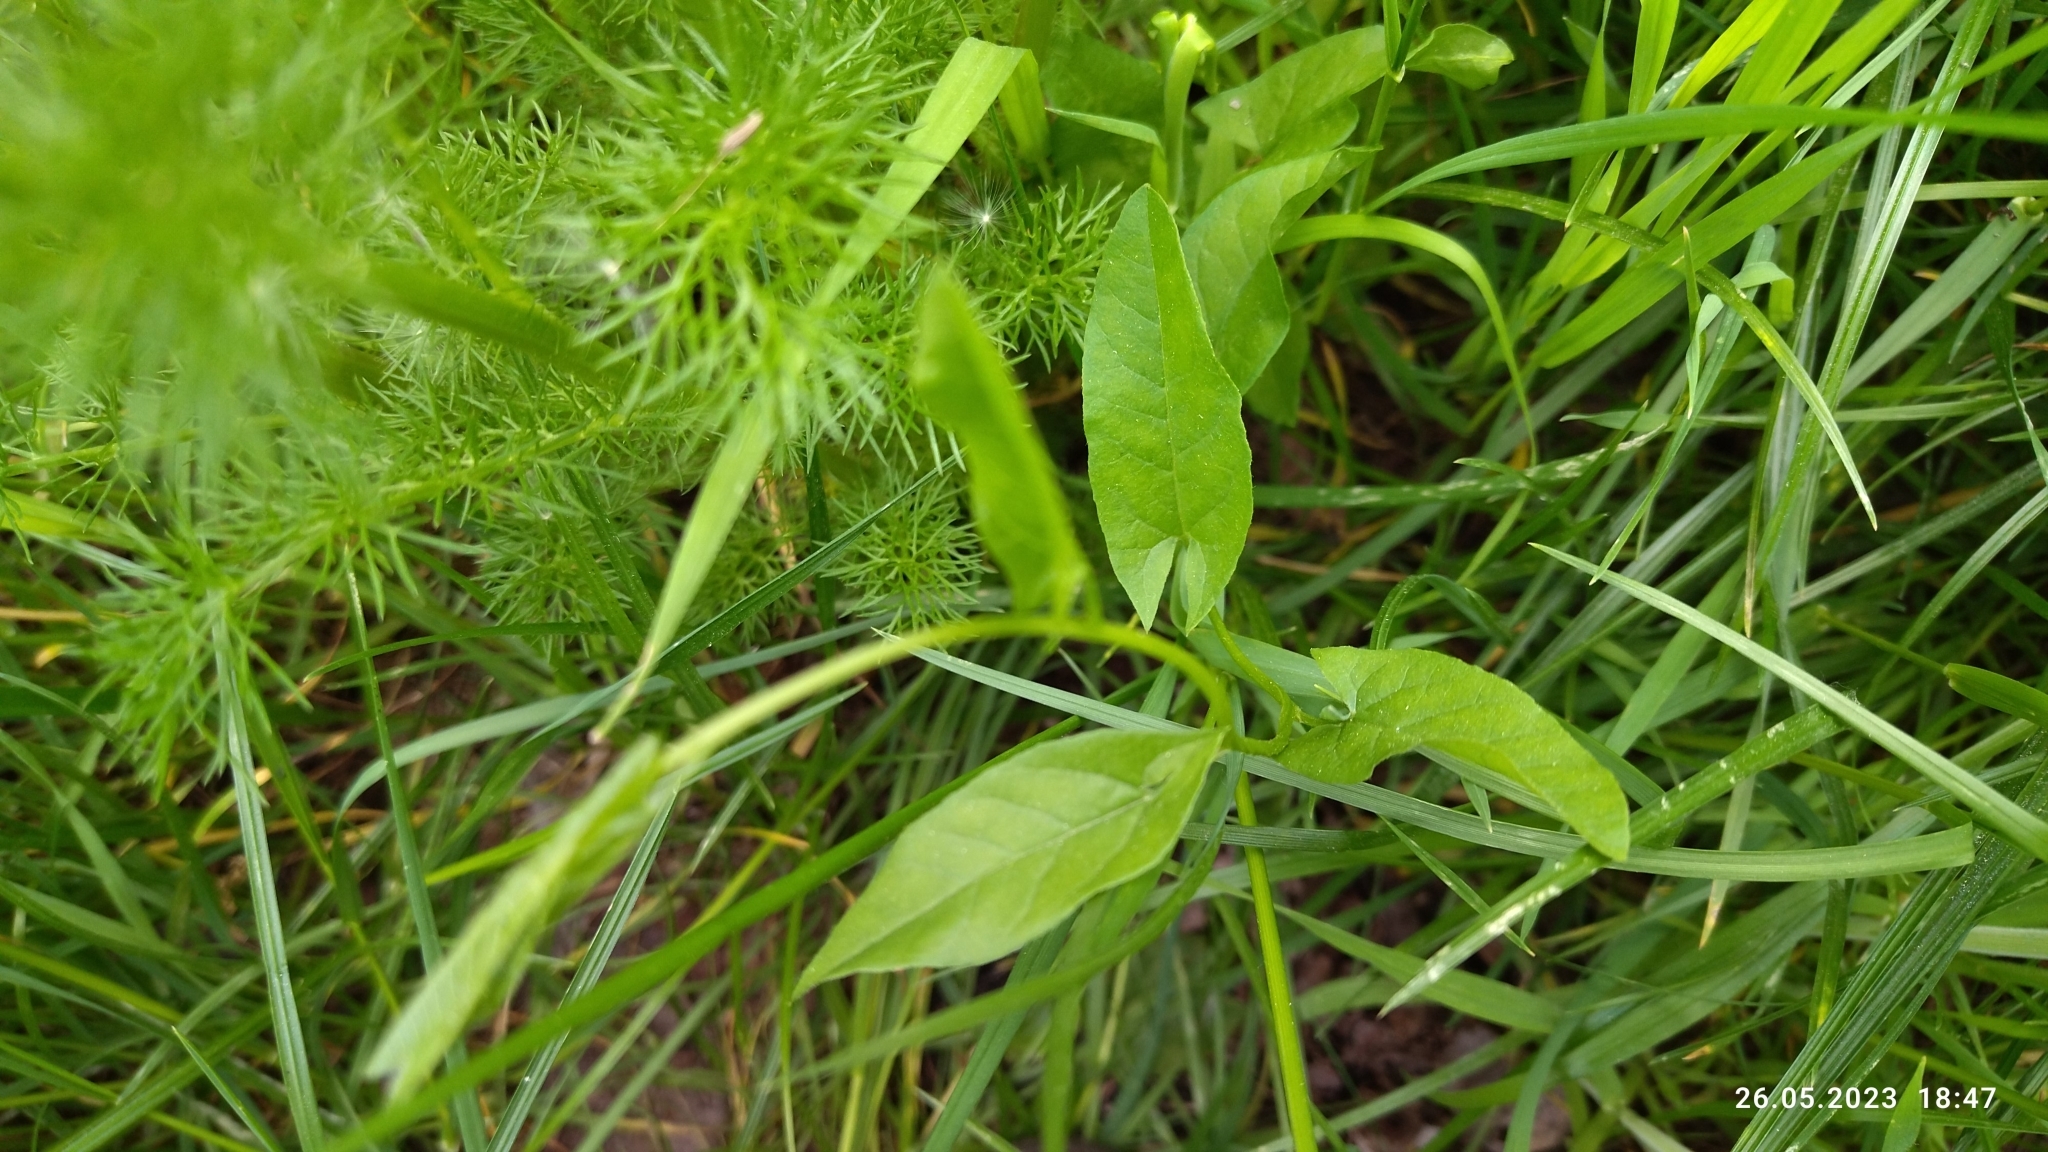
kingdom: Plantae
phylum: Tracheophyta
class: Magnoliopsida
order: Solanales
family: Convolvulaceae
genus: Convolvulus
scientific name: Convolvulus arvensis
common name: Field bindweed
